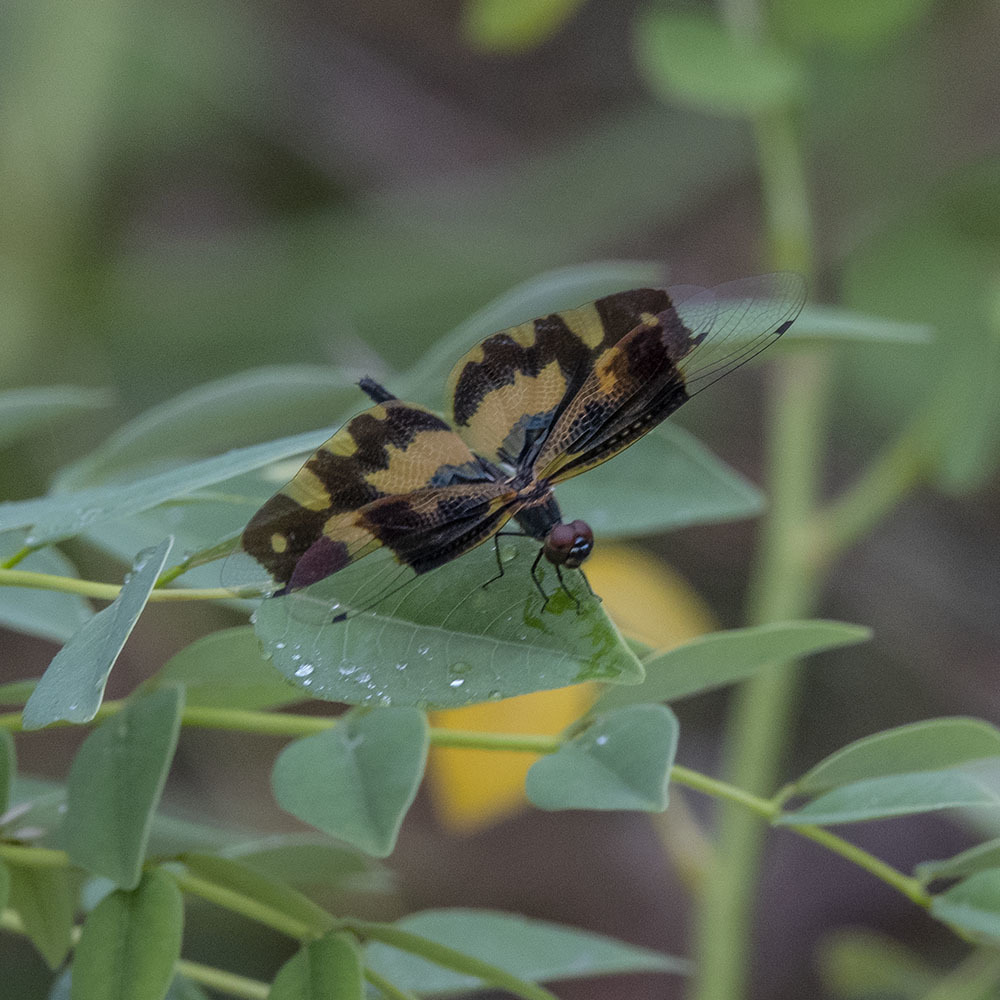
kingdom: Animalia
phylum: Arthropoda
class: Insecta
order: Odonata
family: Libellulidae
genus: Rhyothemis
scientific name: Rhyothemis variegata
